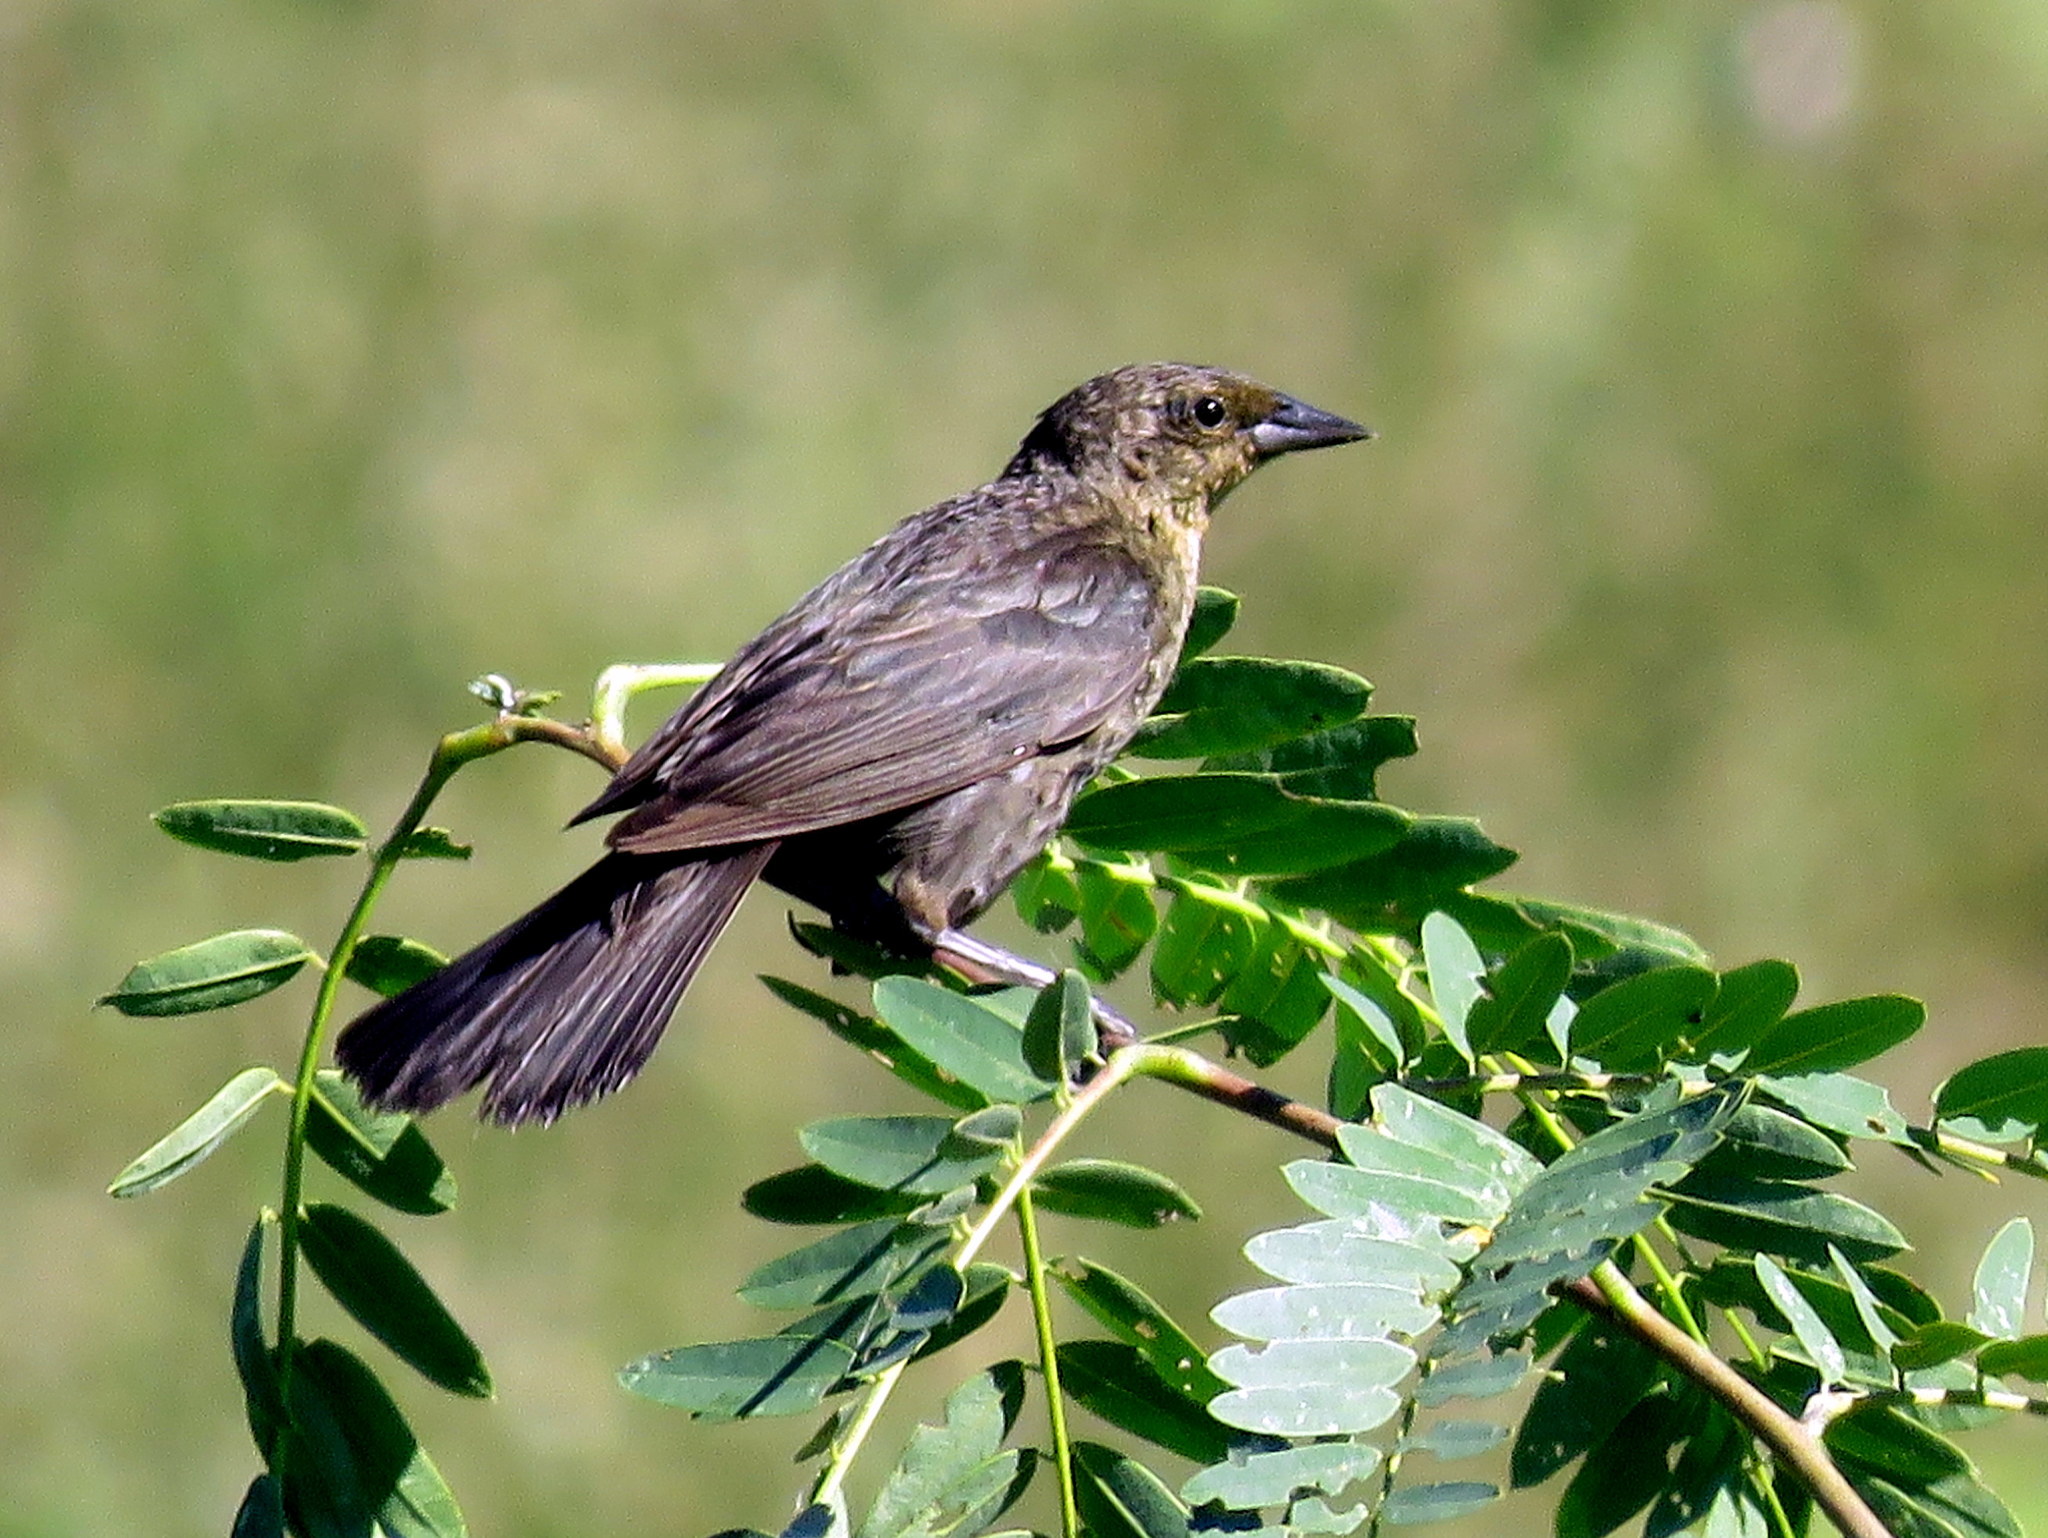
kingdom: Animalia
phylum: Chordata
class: Aves
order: Passeriformes
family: Icteridae
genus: Chrysomus
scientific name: Chrysomus ruficapillus
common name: Chestnut-capped blackbird
